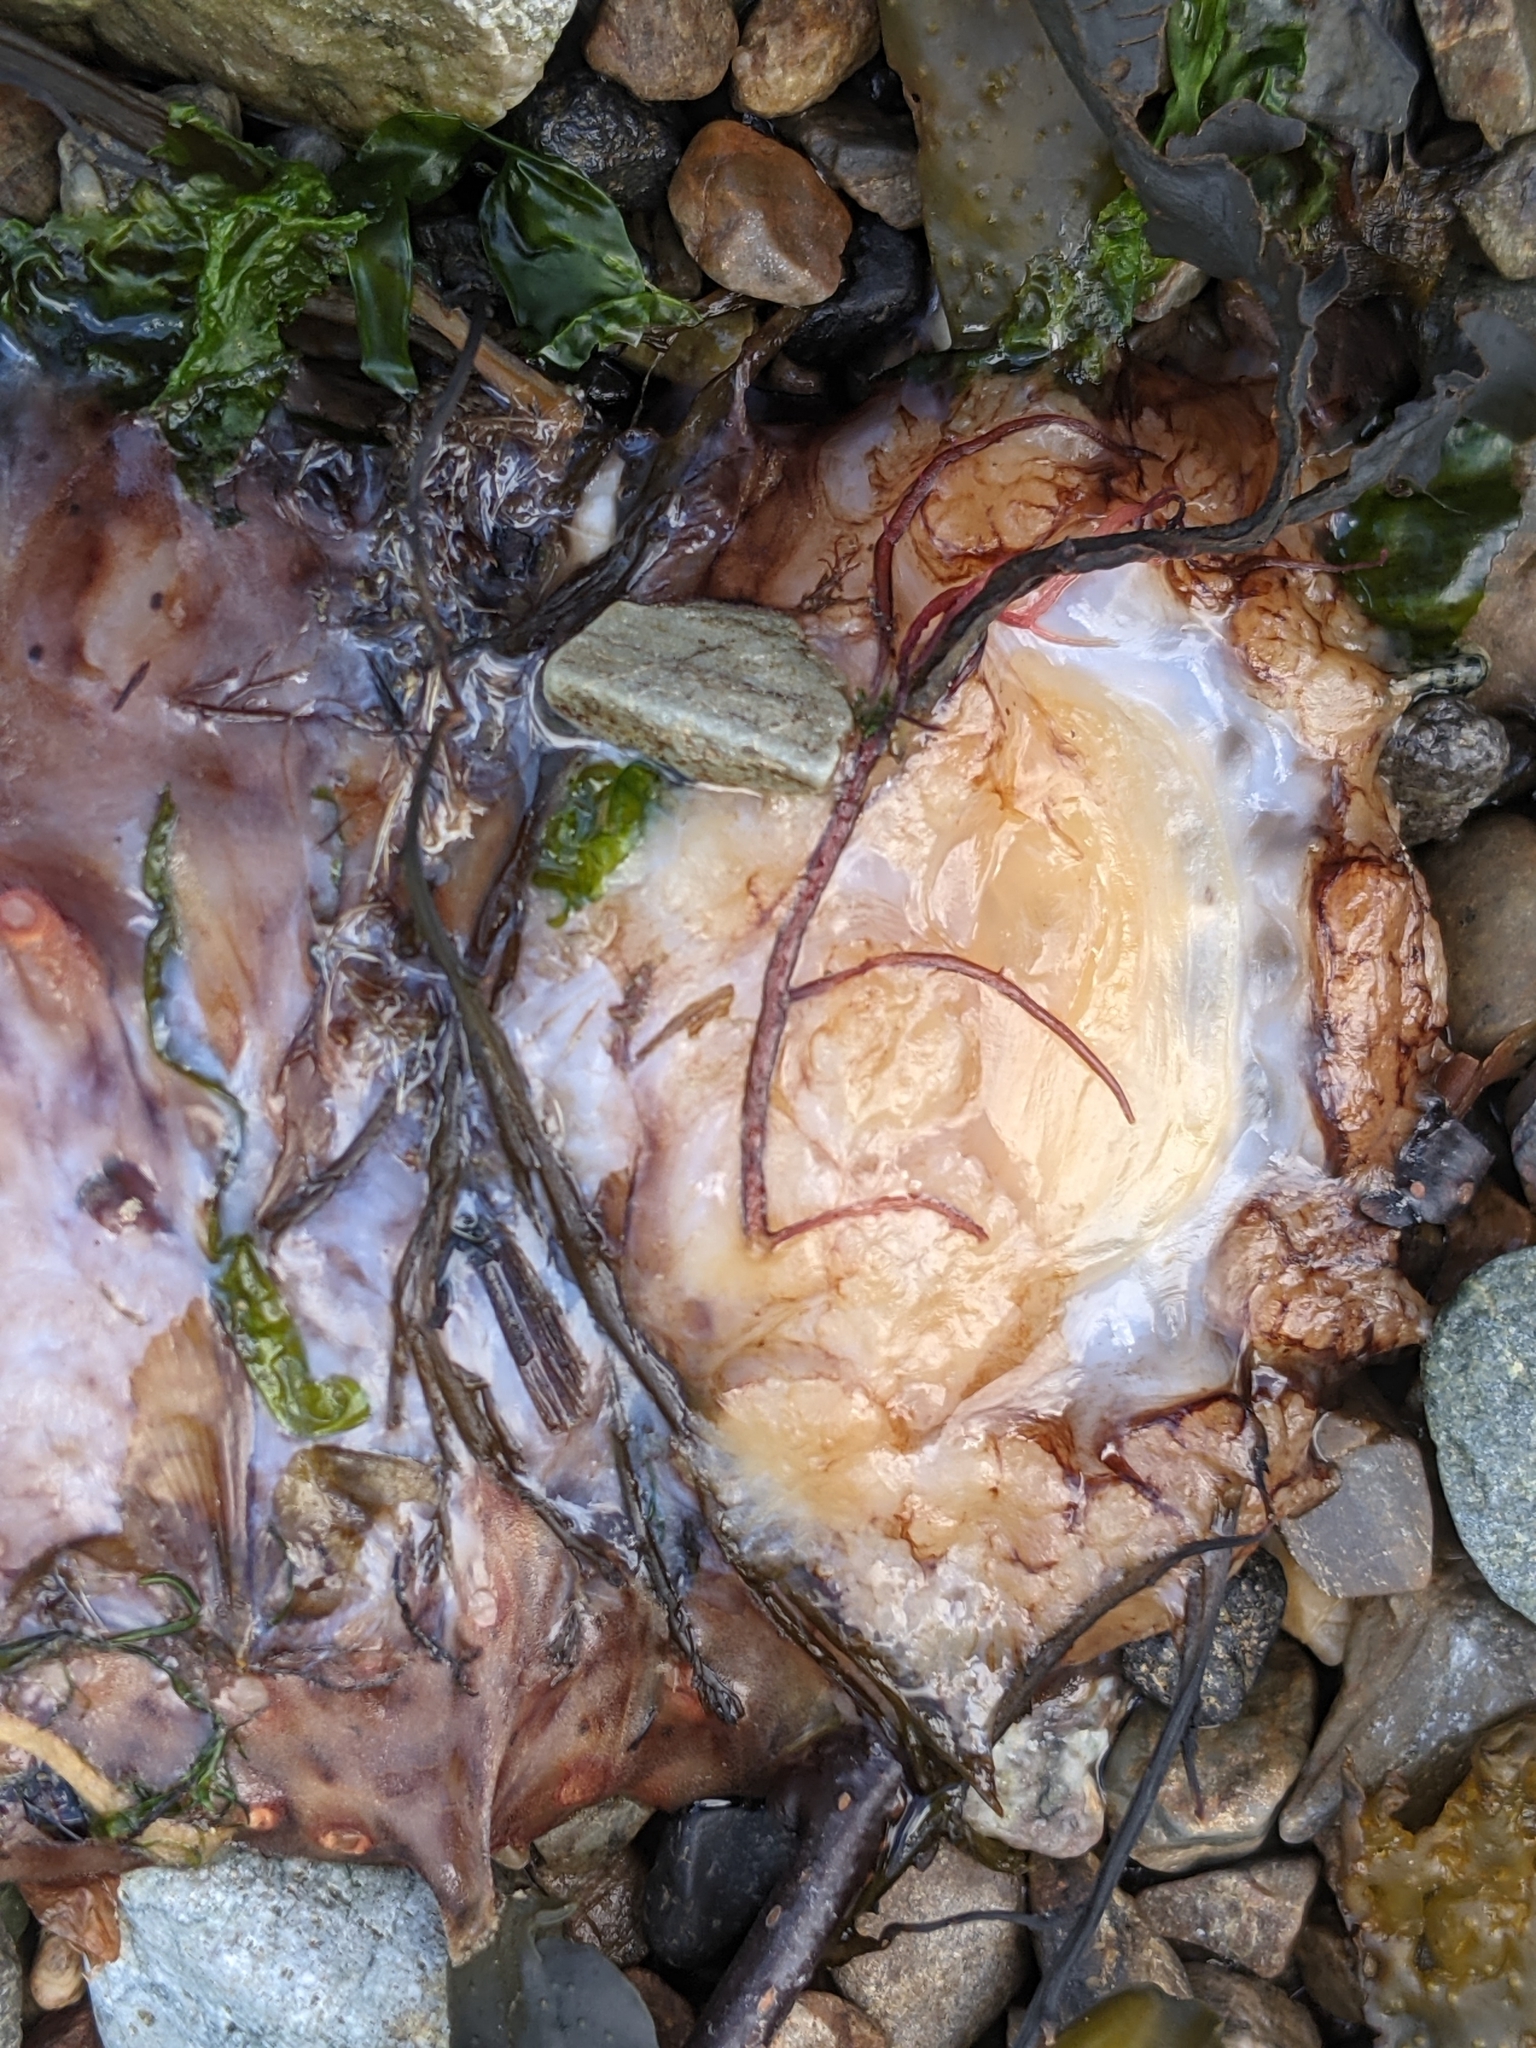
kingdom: Animalia
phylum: Echinodermata
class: Holothuroidea
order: Synallactida
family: Stichopodidae
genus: Apostichopus
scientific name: Apostichopus californicus
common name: California sea cucumber
